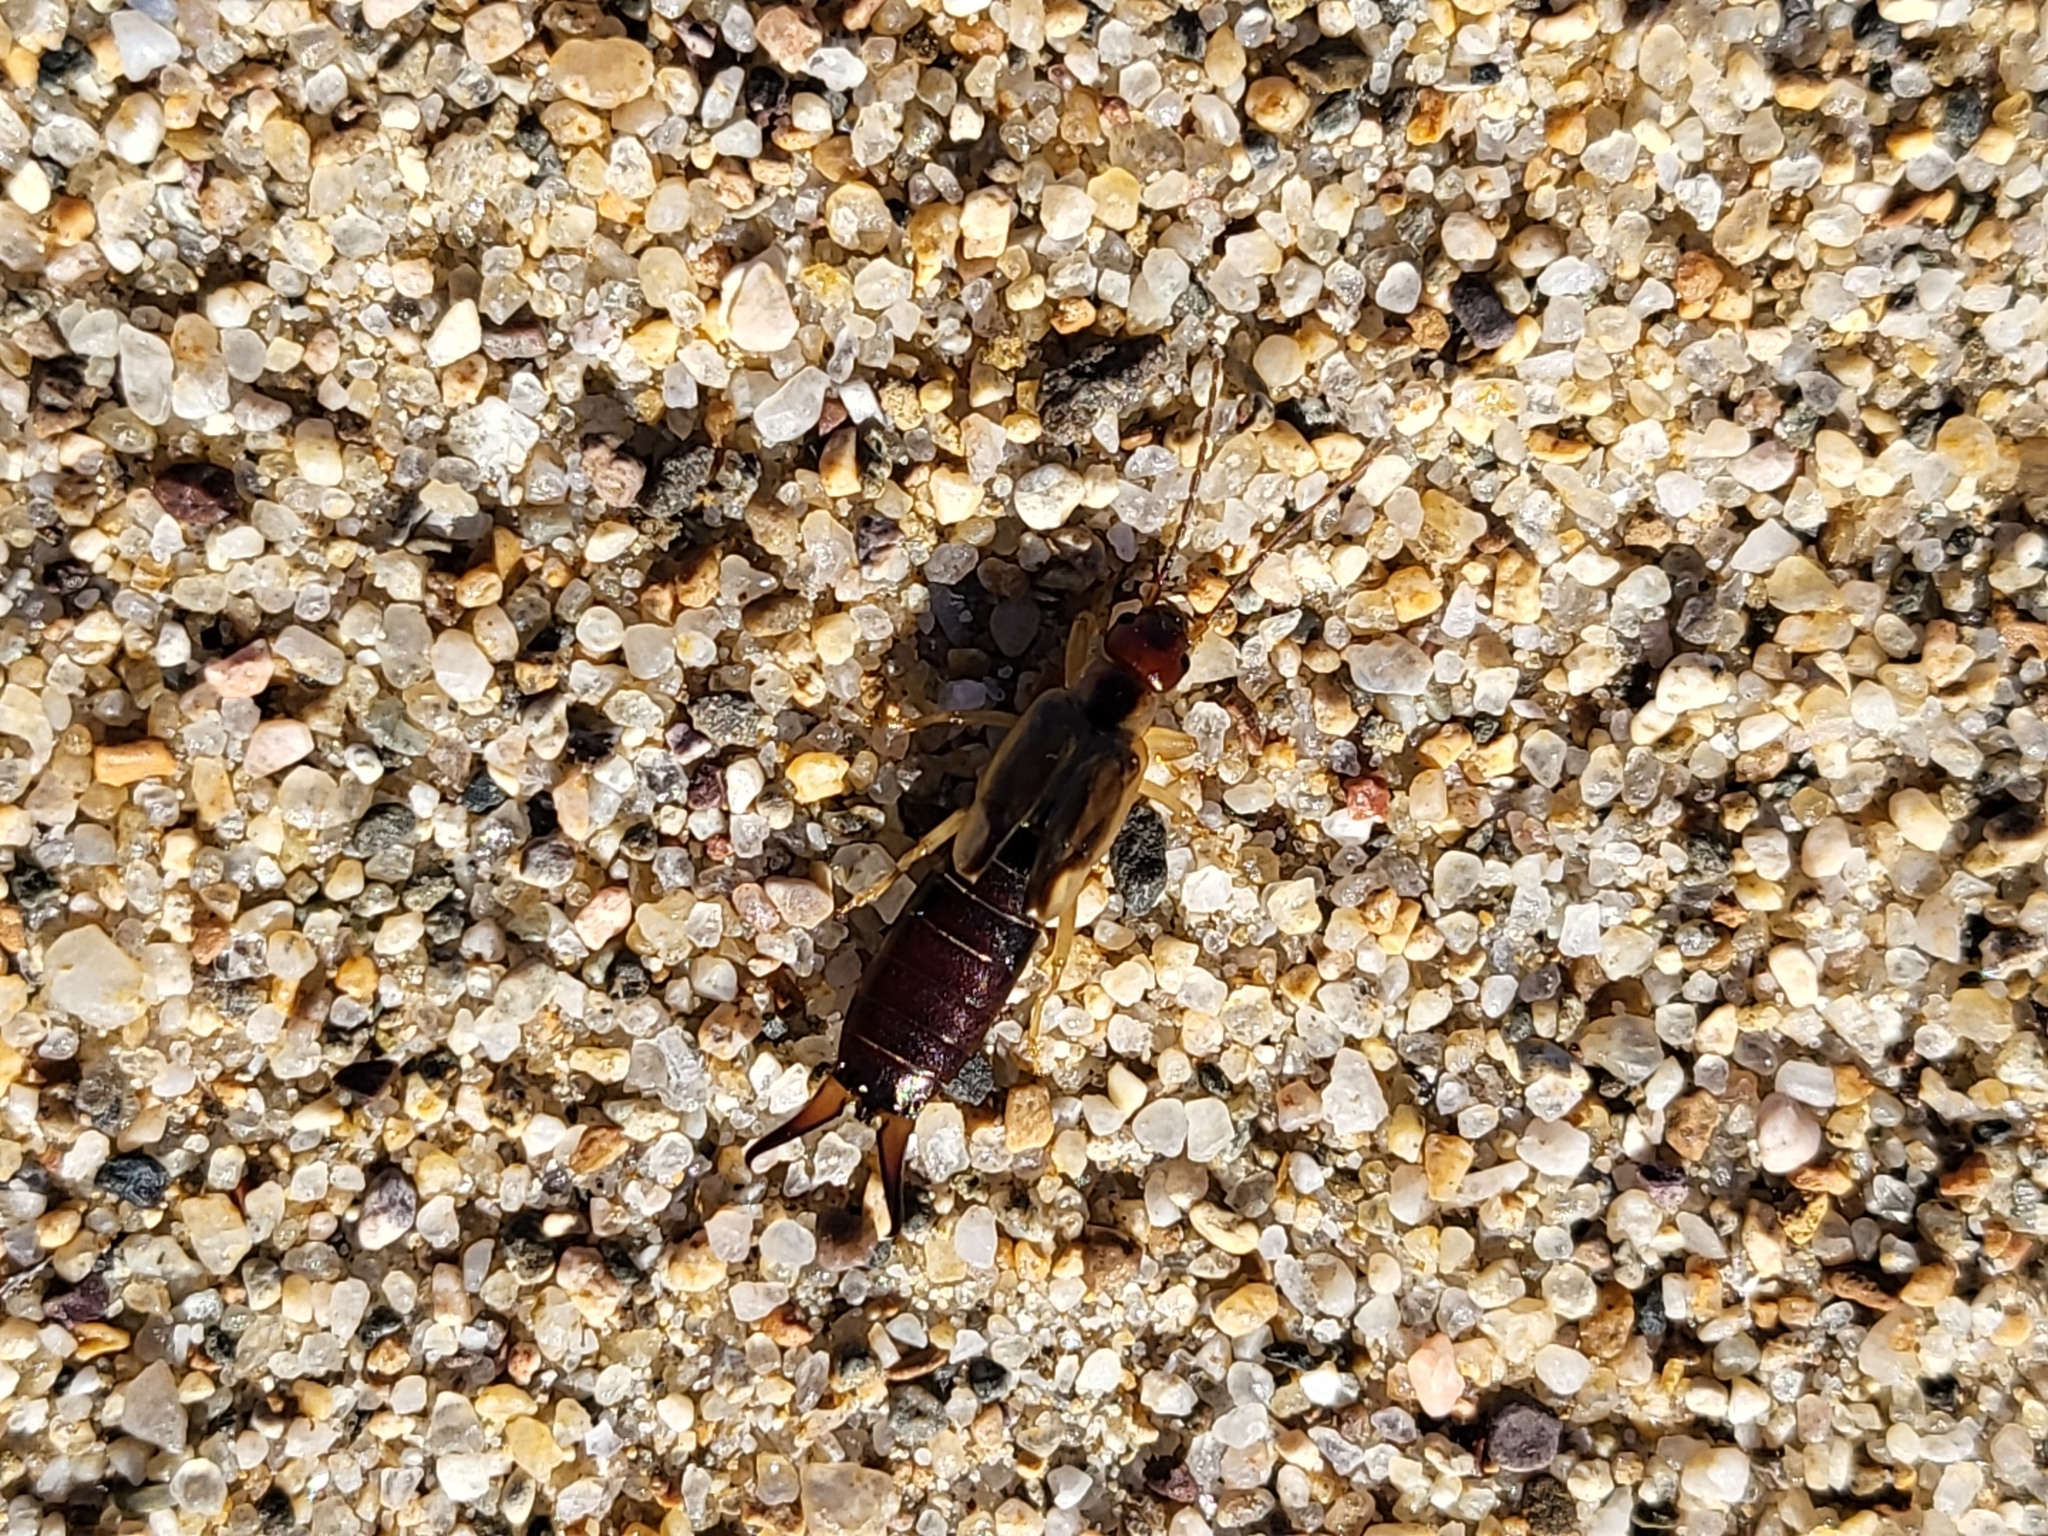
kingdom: Animalia
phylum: Arthropoda
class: Insecta
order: Dermaptera
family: Forficulidae
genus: Forficula
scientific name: Forficula dentata
